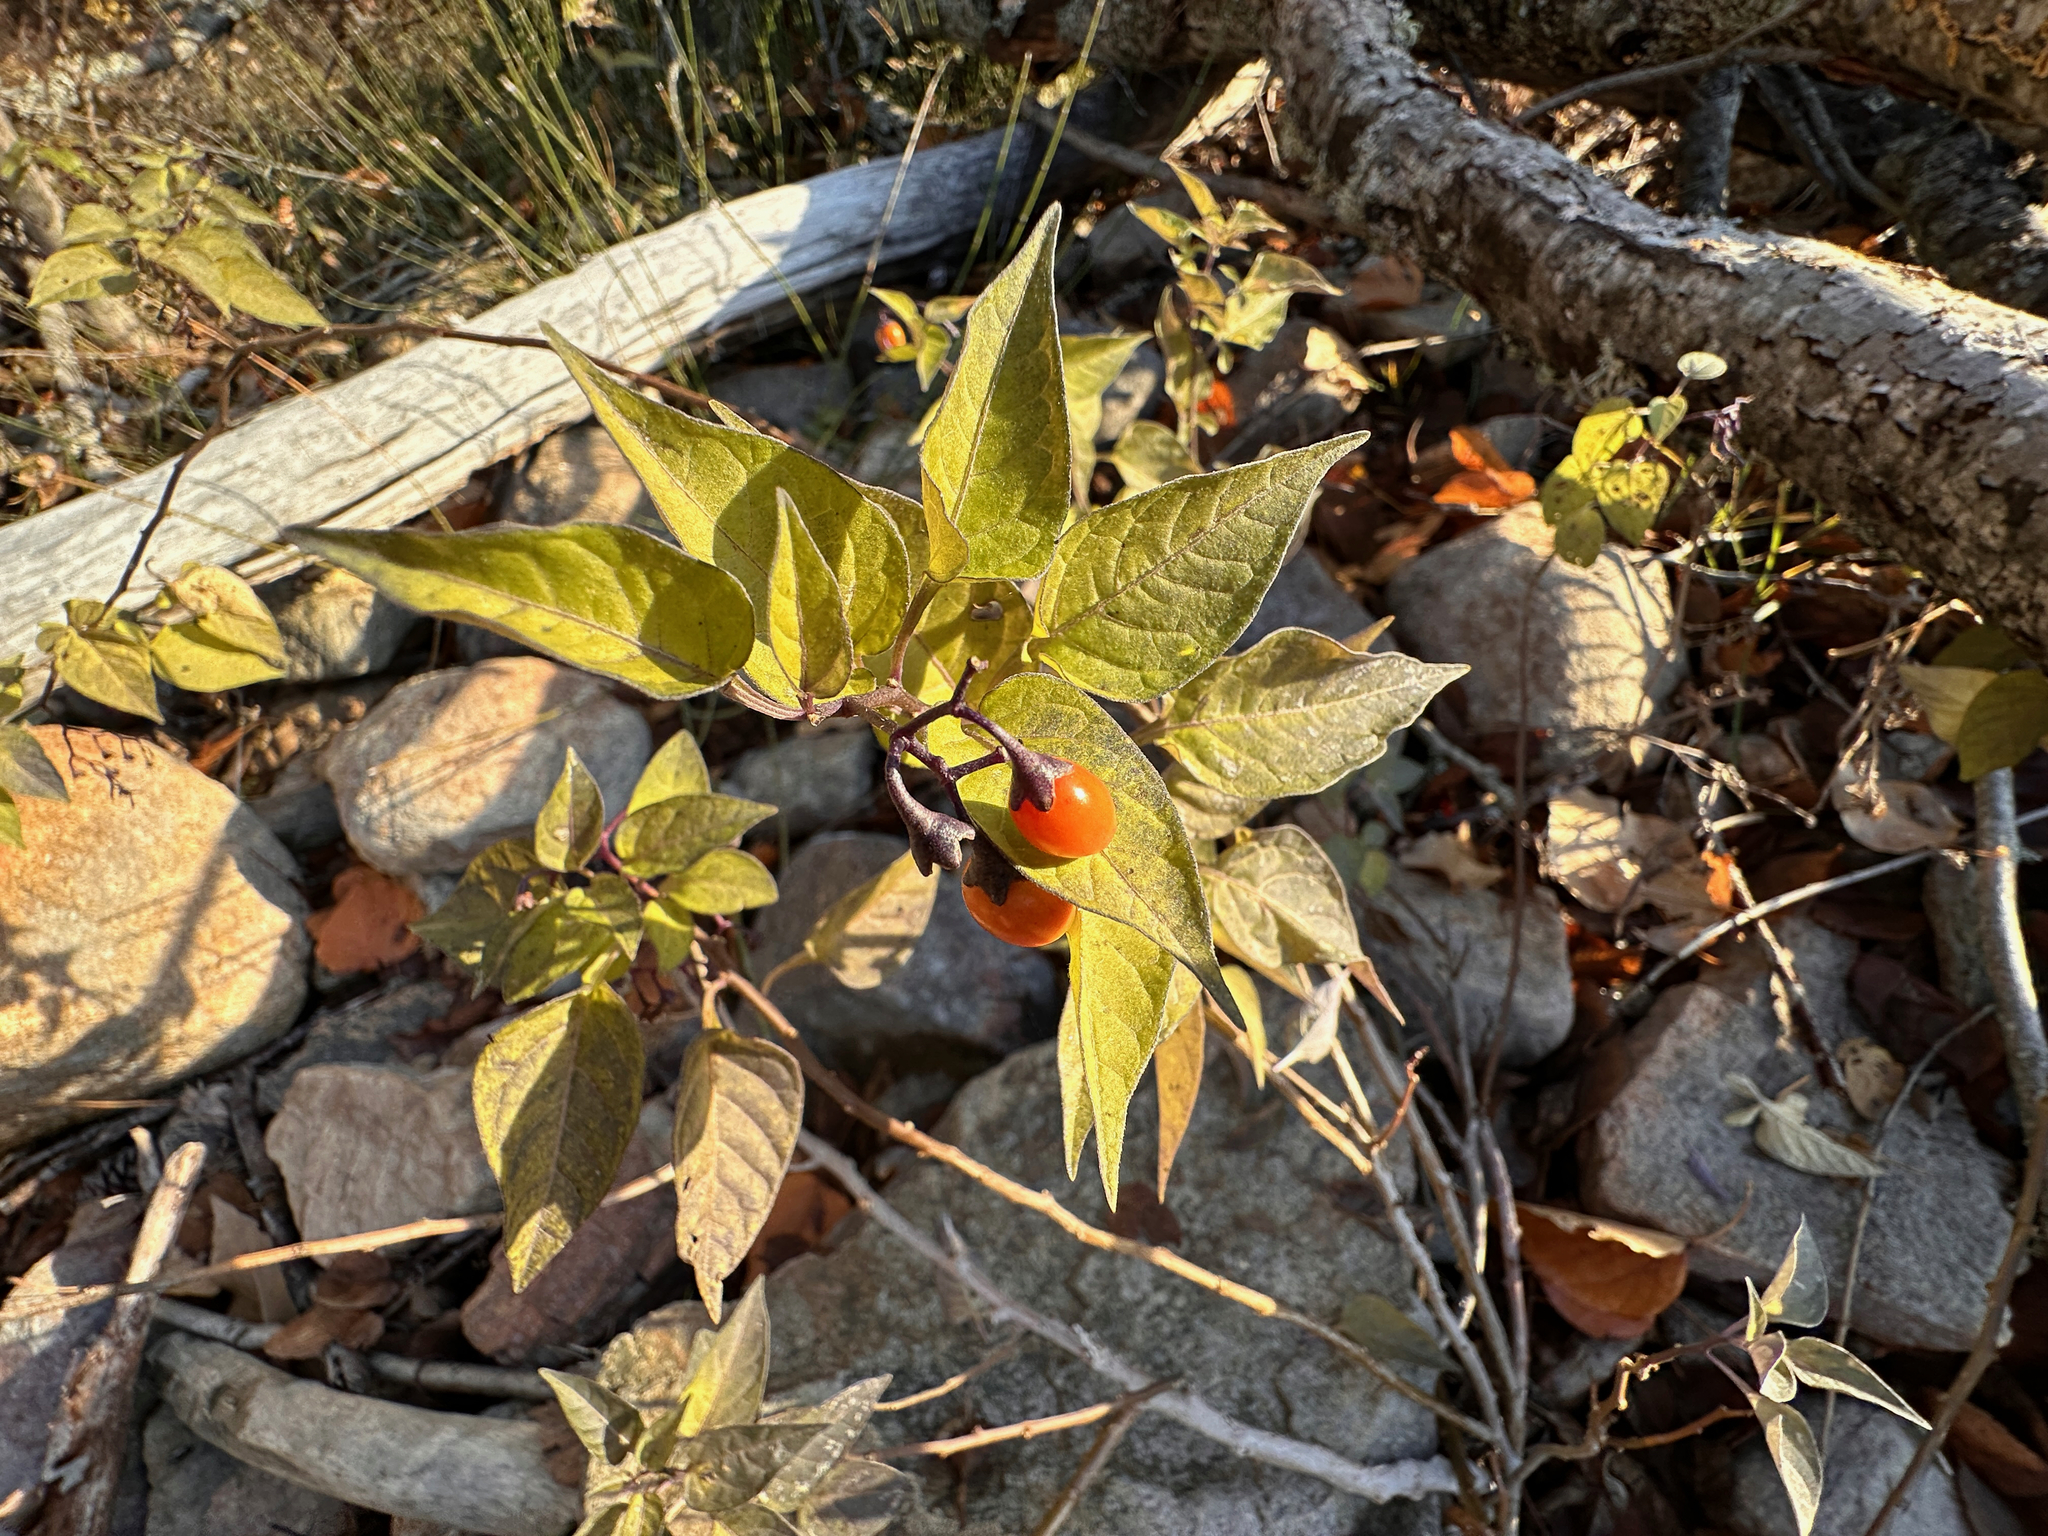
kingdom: Plantae
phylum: Tracheophyta
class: Magnoliopsida
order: Solanales
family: Solanaceae
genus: Solanum
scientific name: Solanum dulcamara
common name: Climbing nightshade
